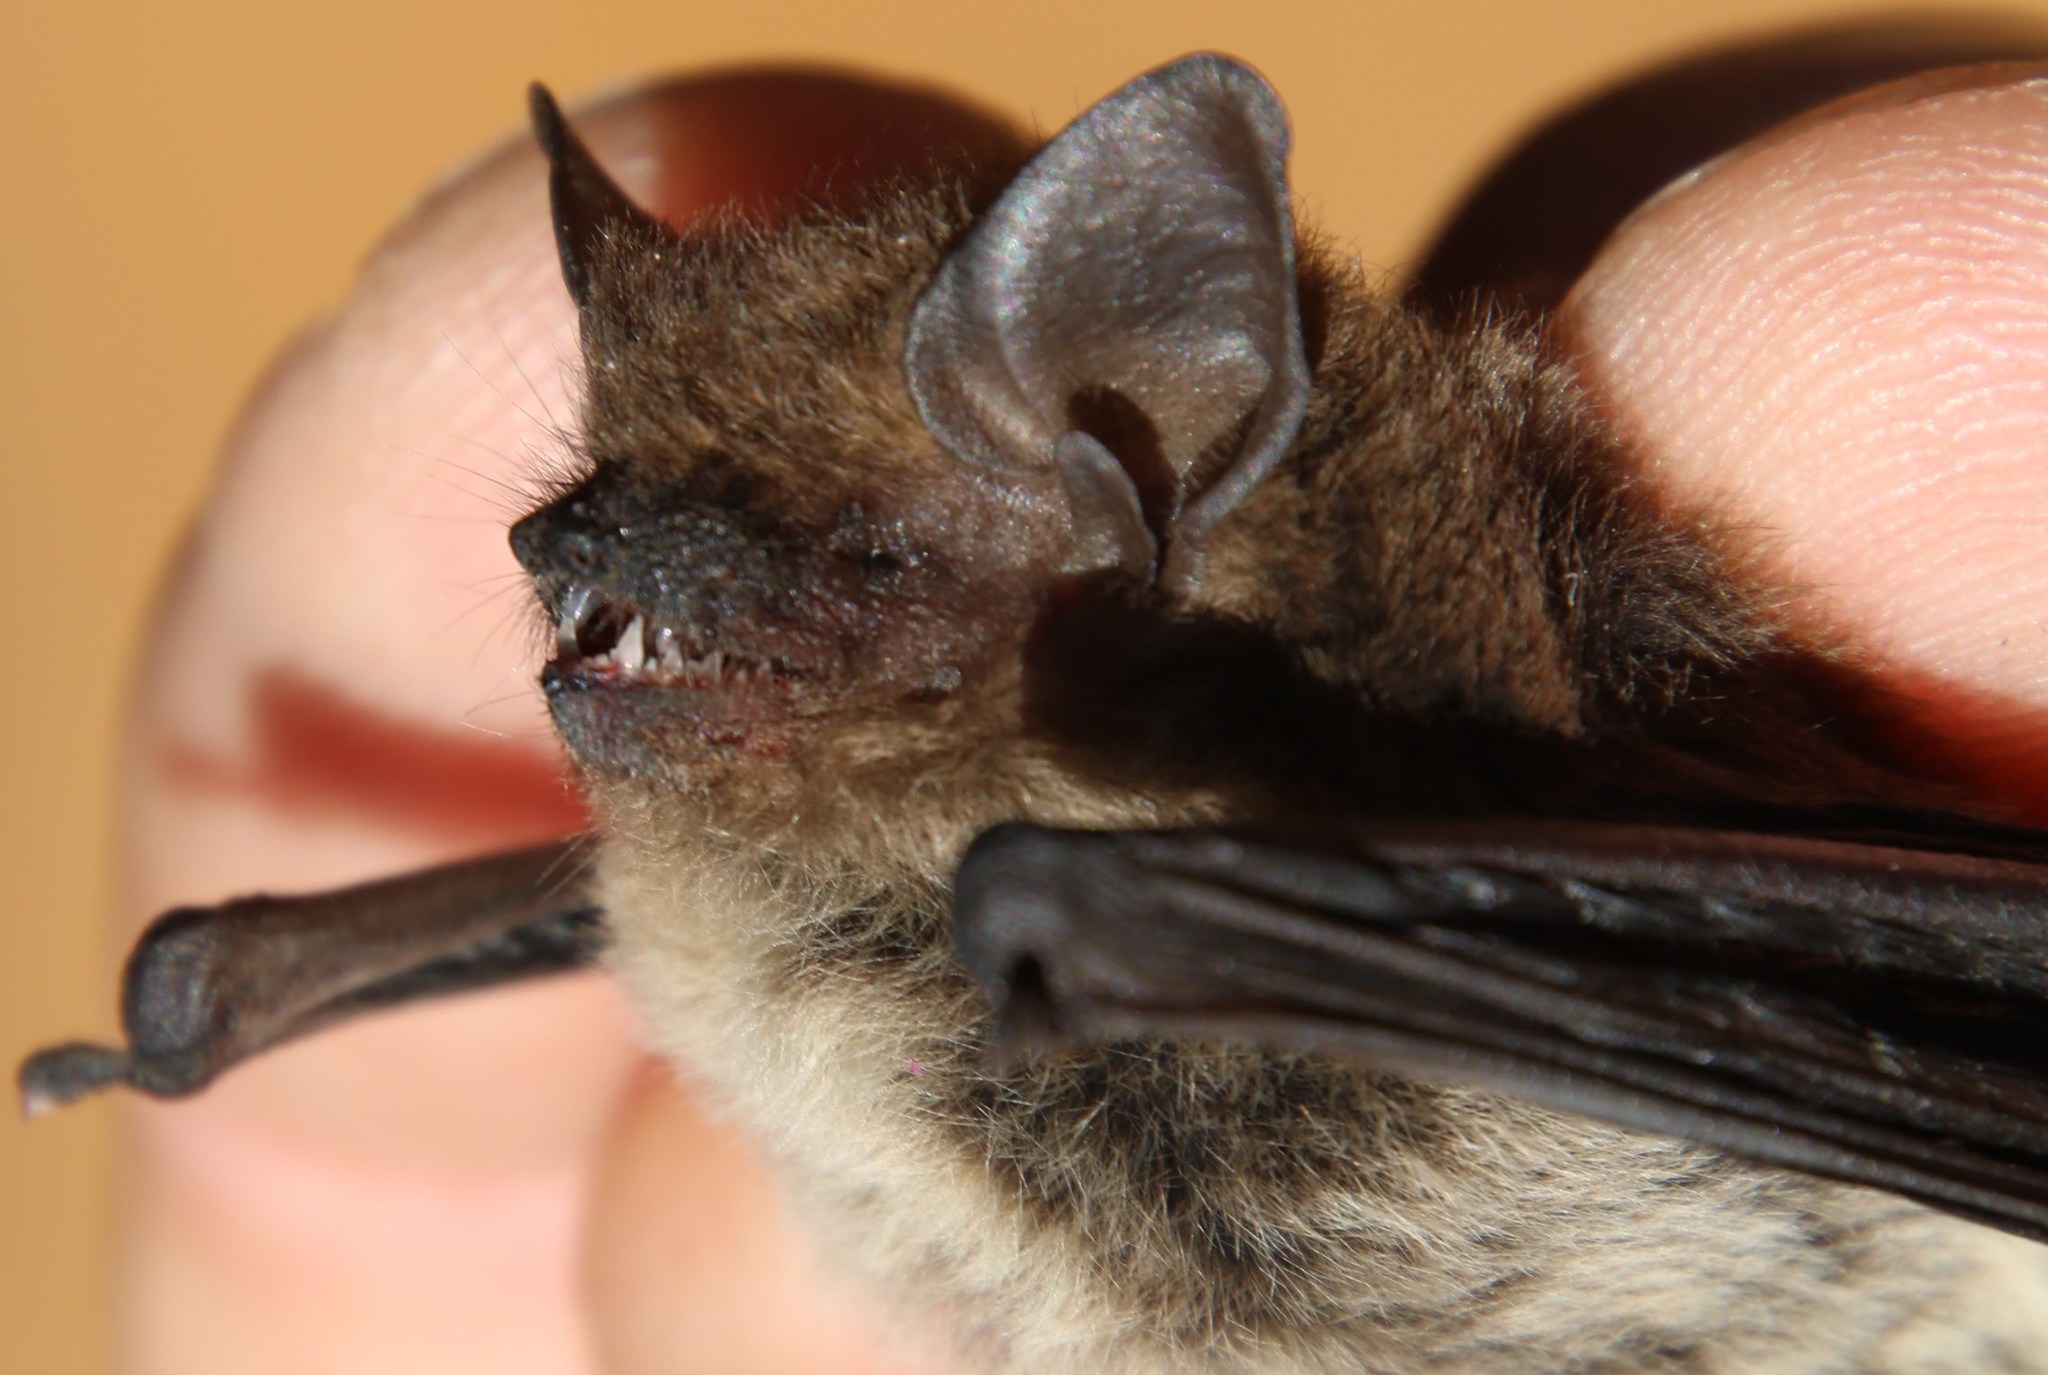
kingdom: Animalia
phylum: Chordata
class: Mammalia
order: Chiroptera
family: Vespertilionidae
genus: Laephotis
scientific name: Laephotis capensis
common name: Cape serotine
